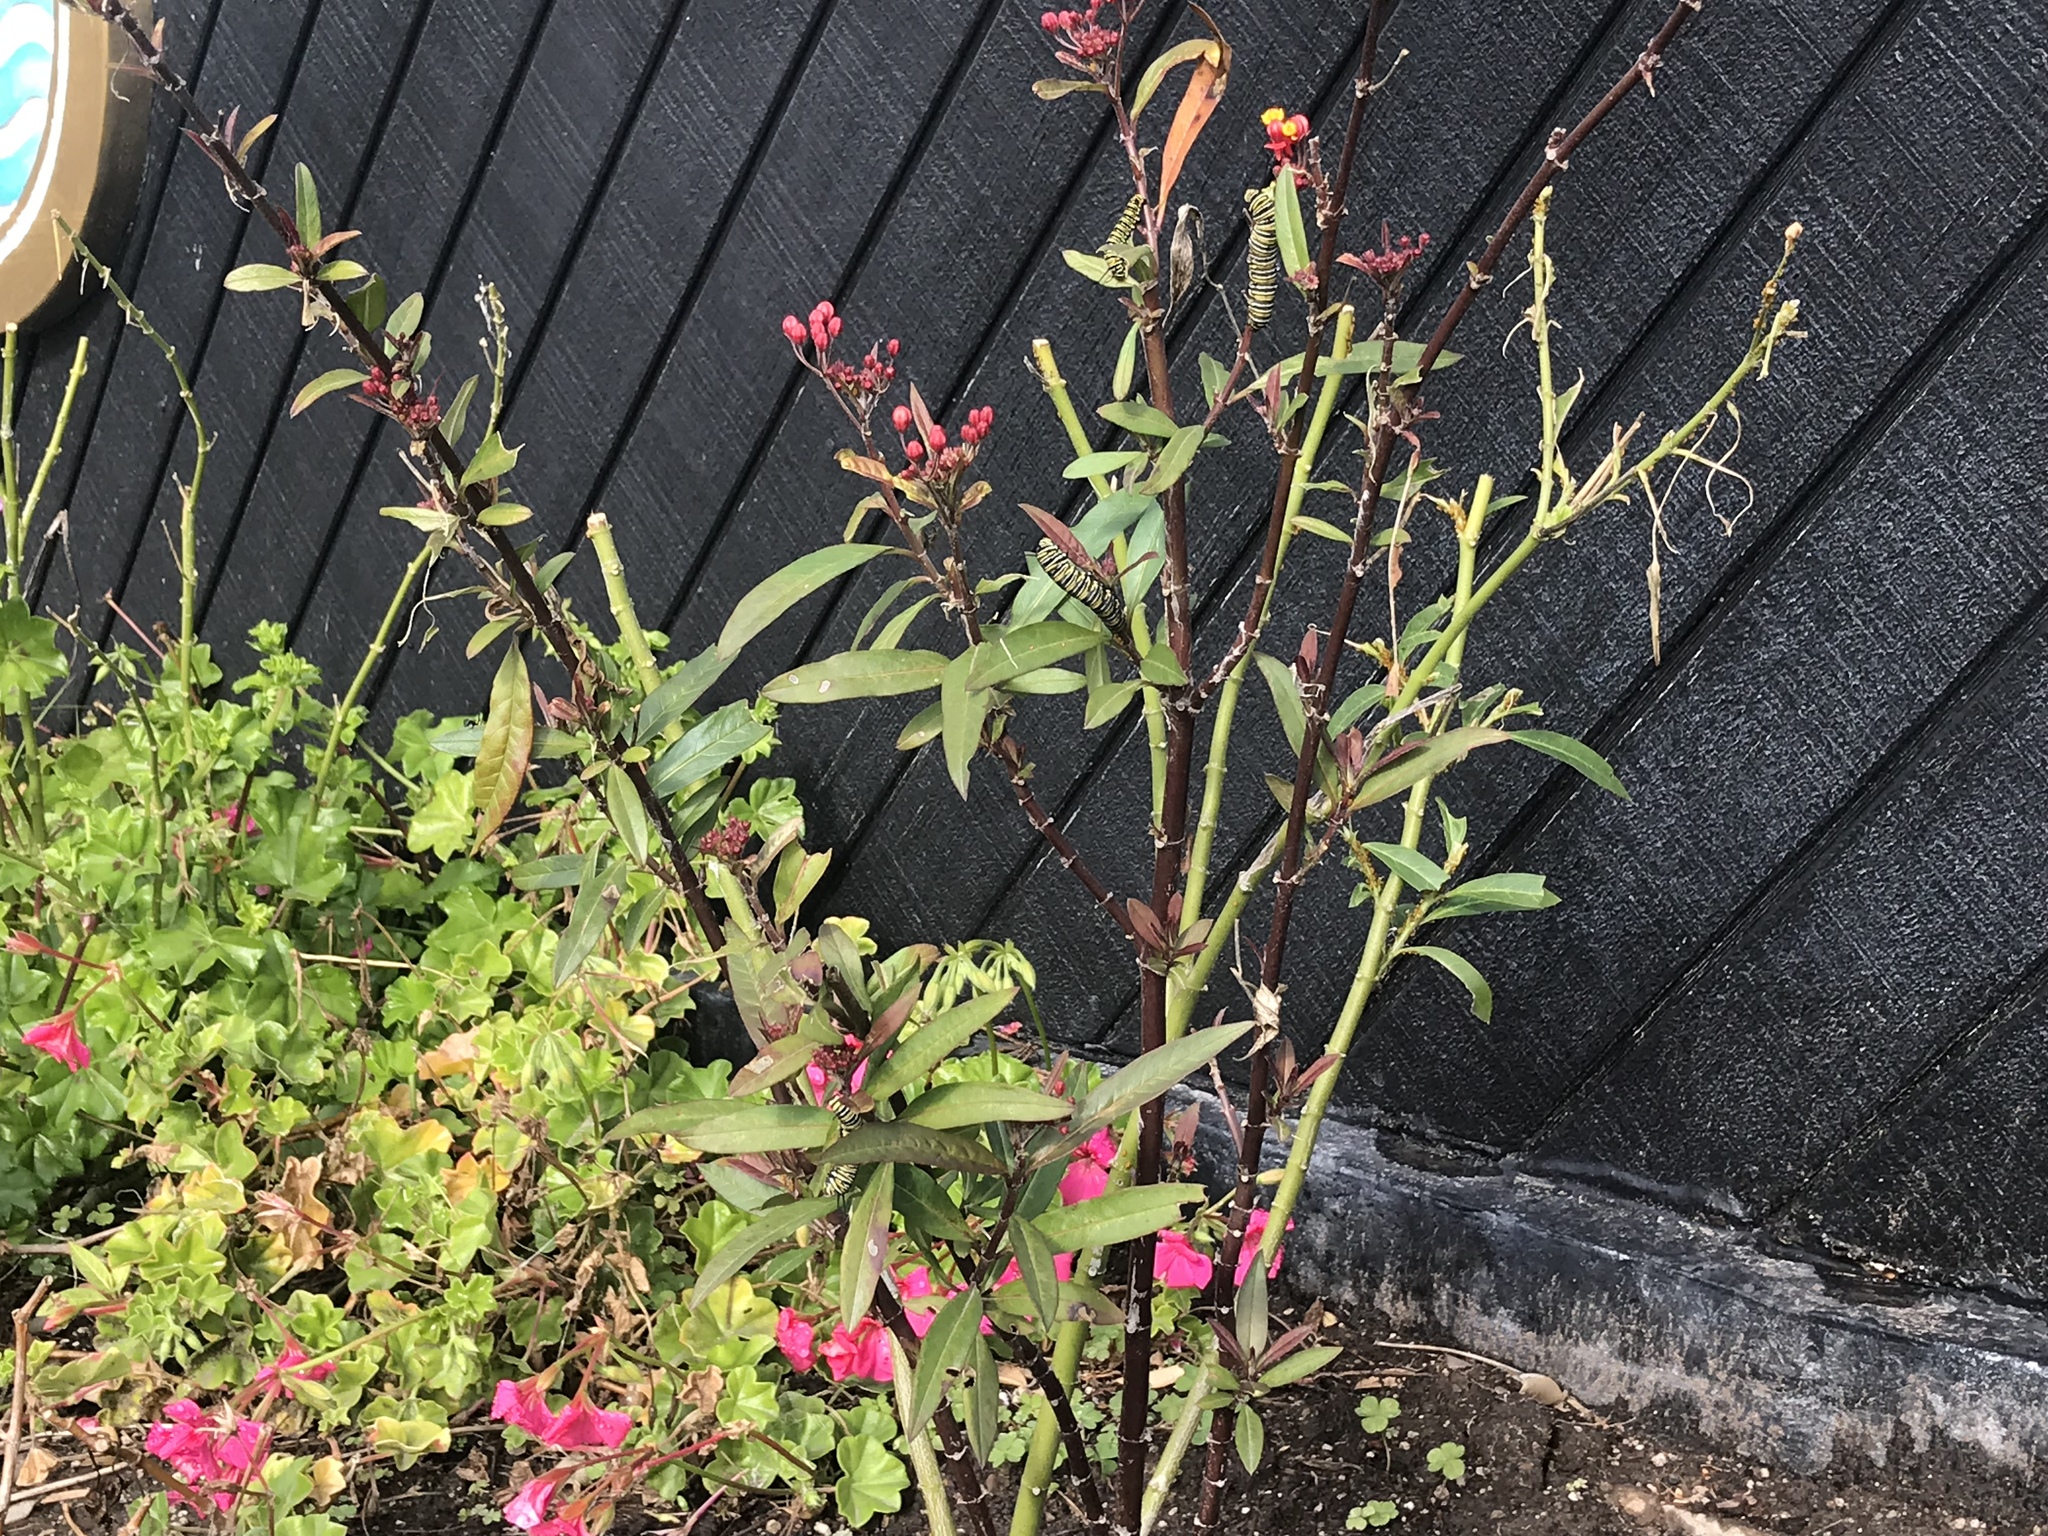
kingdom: Animalia
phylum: Arthropoda
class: Insecta
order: Lepidoptera
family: Nymphalidae
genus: Danaus
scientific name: Danaus plexippus
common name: Monarch
